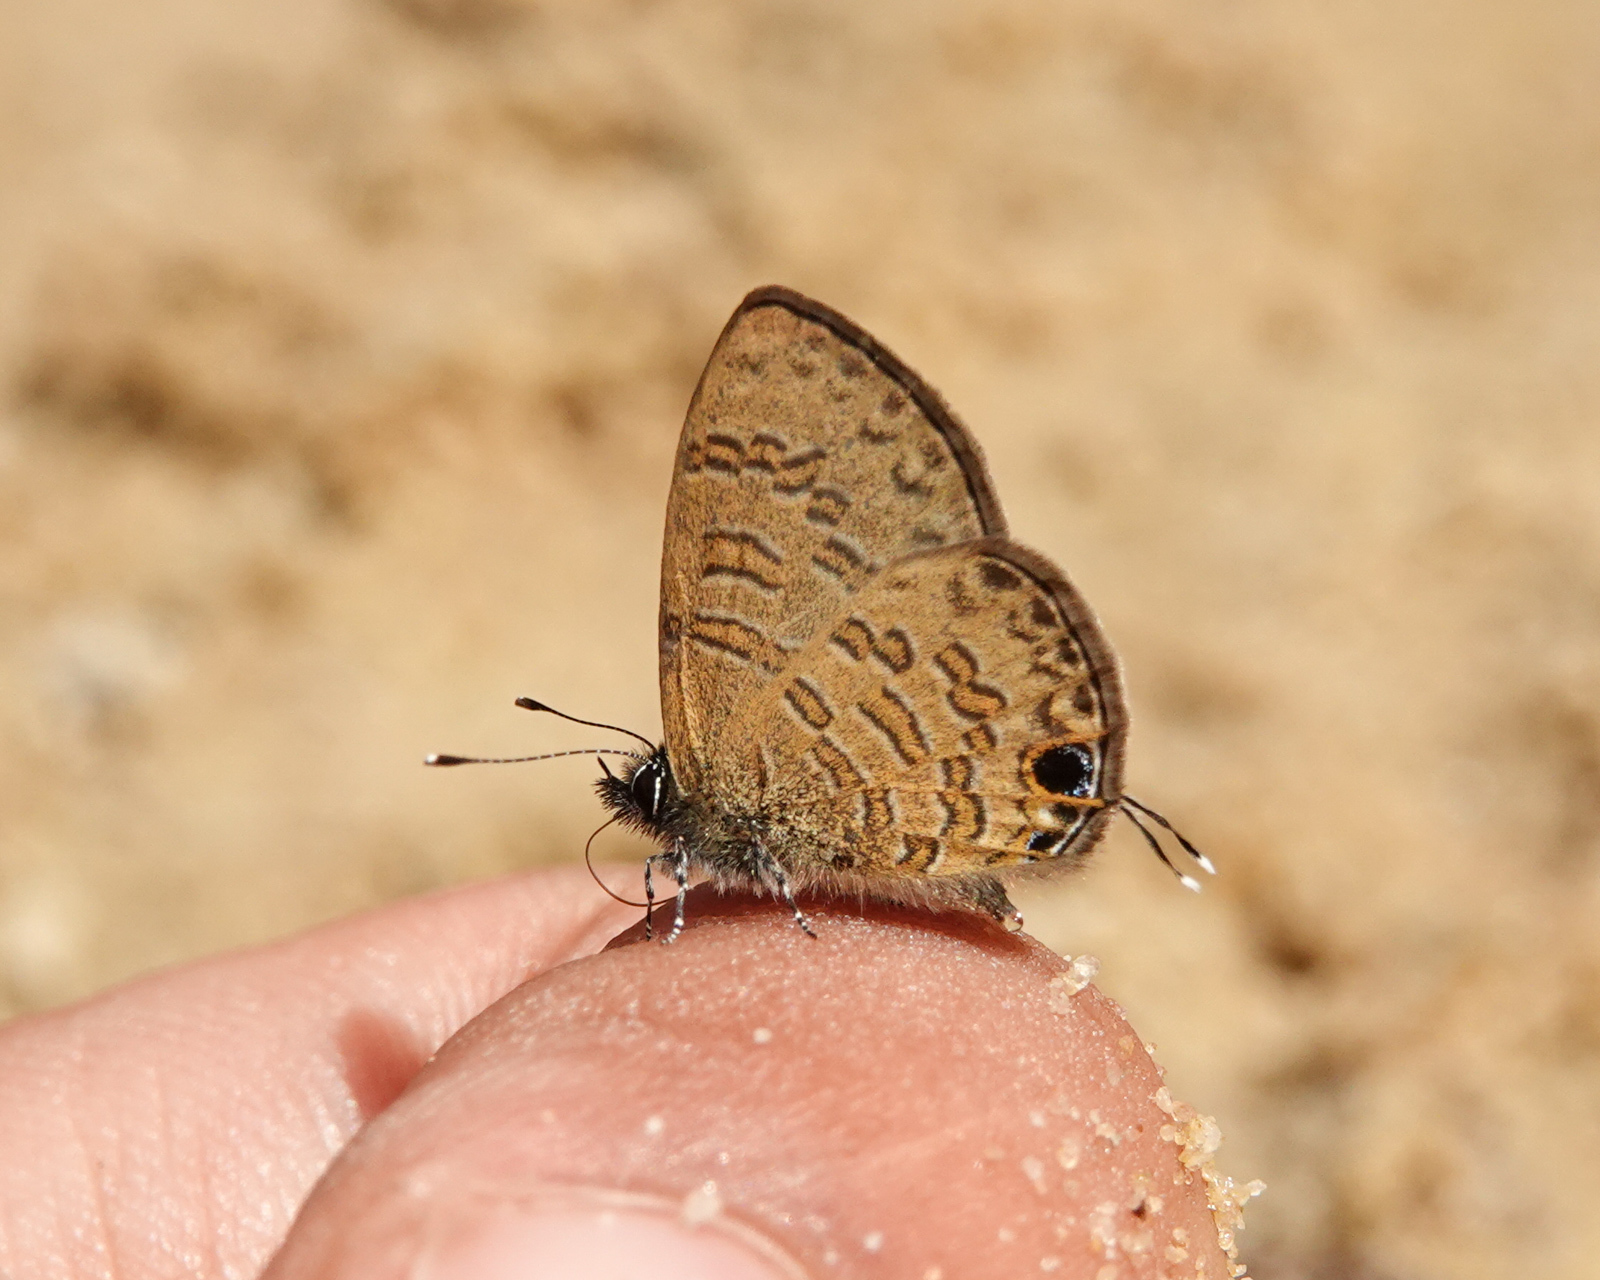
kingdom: Animalia
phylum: Arthropoda
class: Insecta
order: Lepidoptera
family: Lycaenidae
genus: Prosotas
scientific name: Prosotas nora
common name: Common line blue
